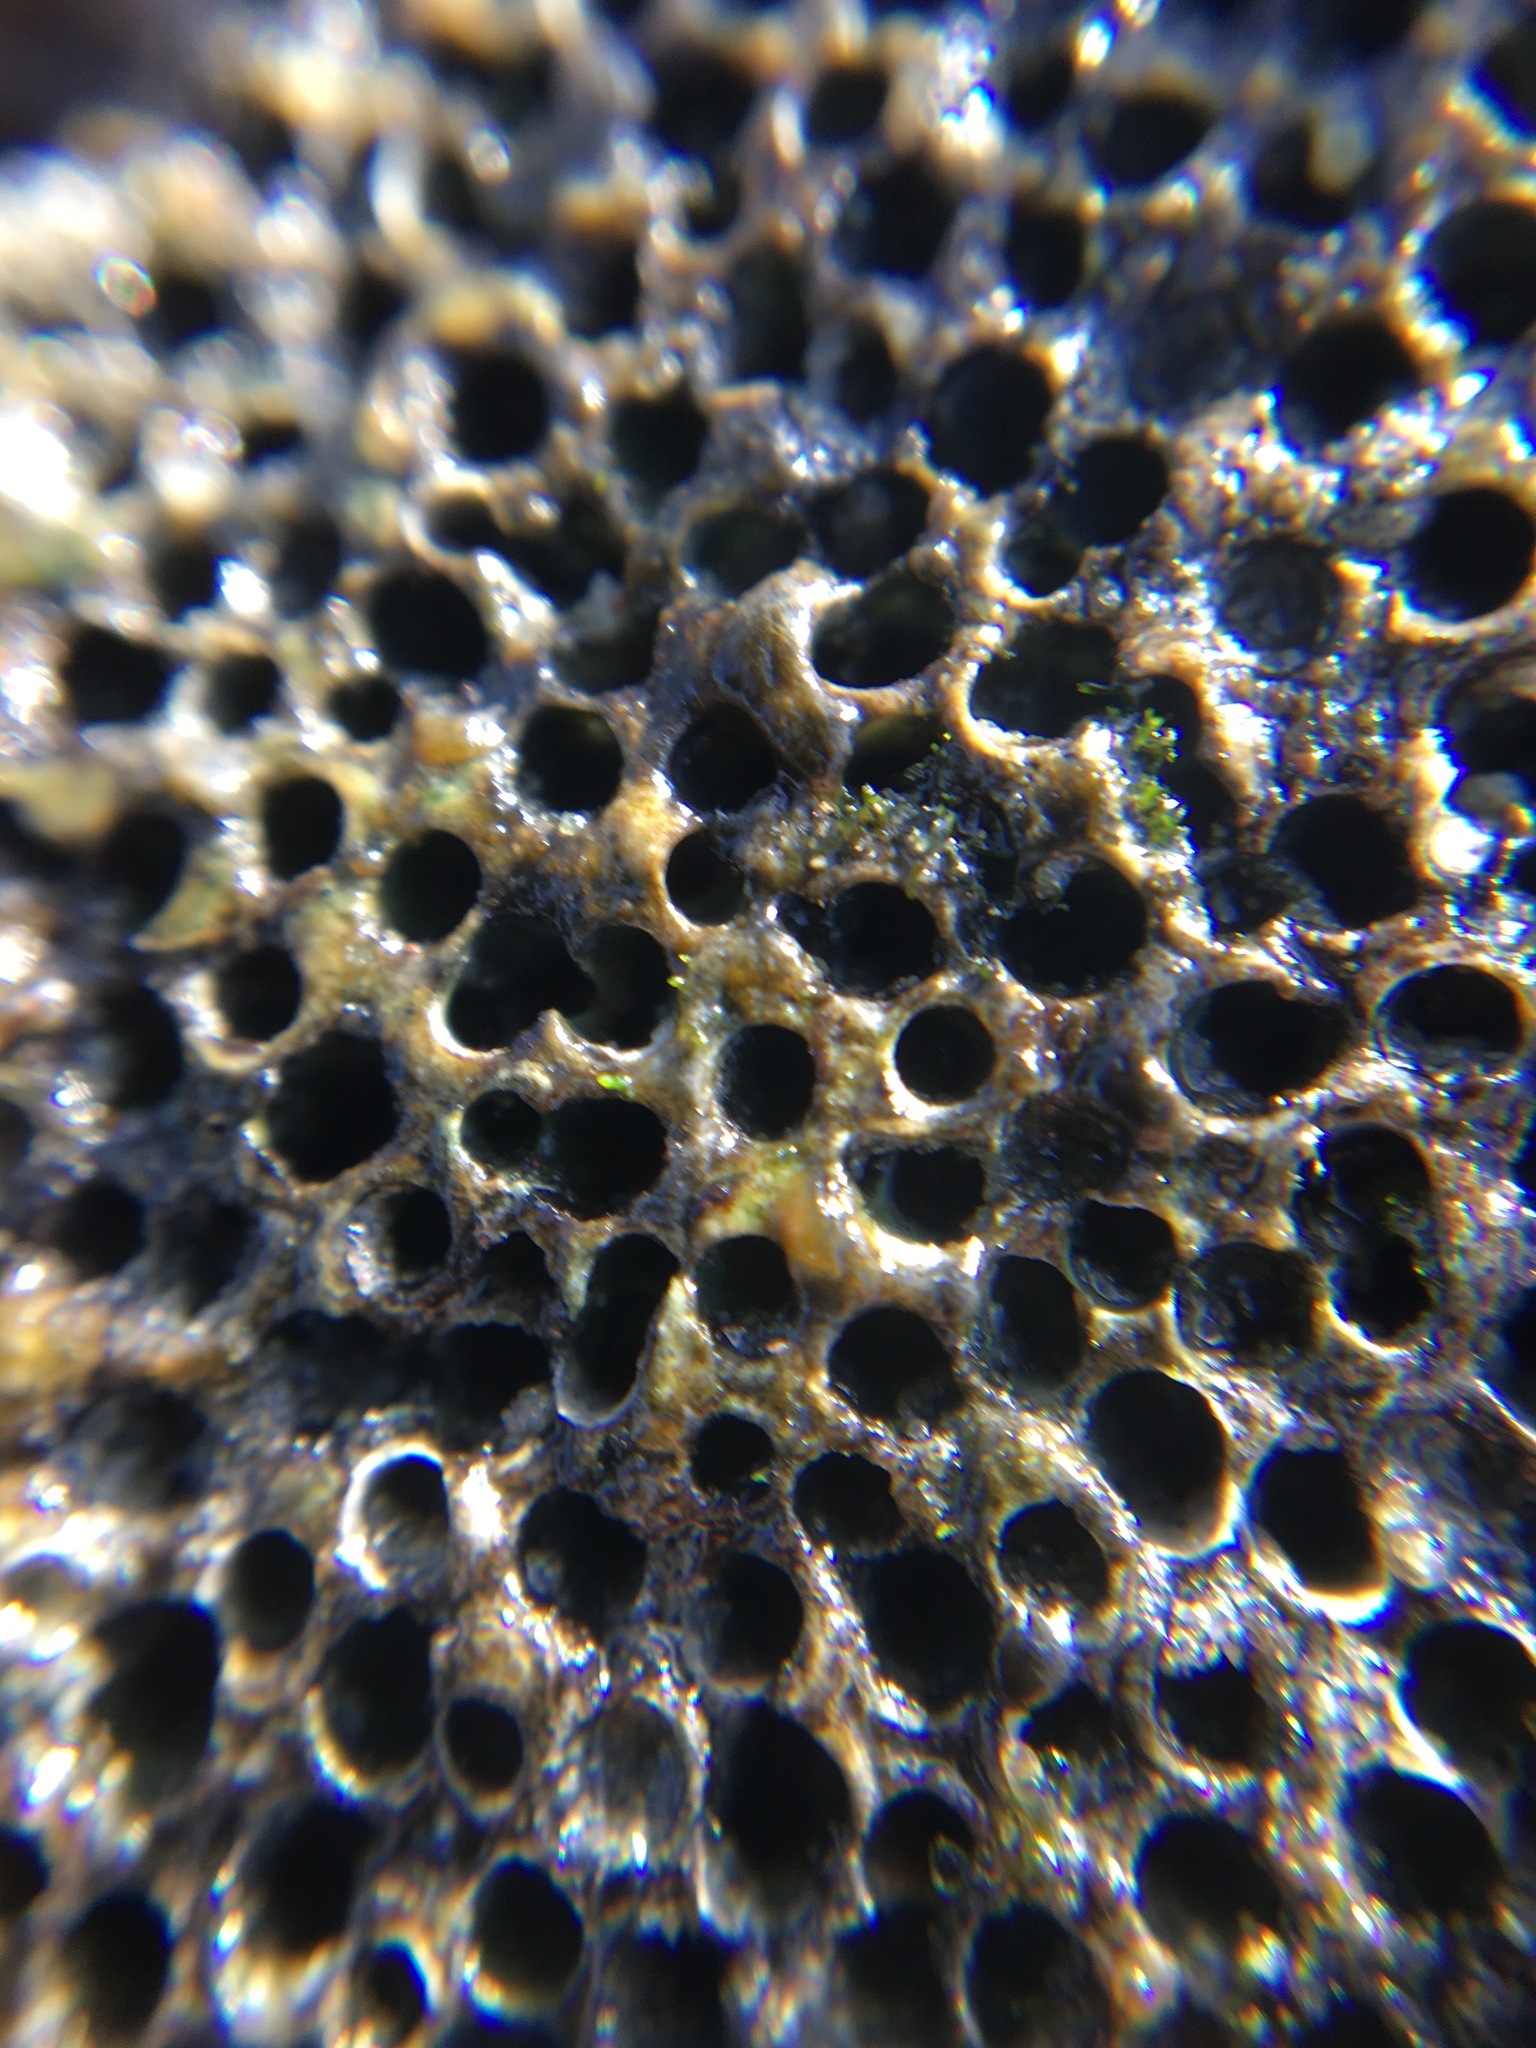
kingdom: Animalia
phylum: Annelida
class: Polychaeta
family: Cirratulidae
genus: Dodecaceria
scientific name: Dodecaceria pacifica
